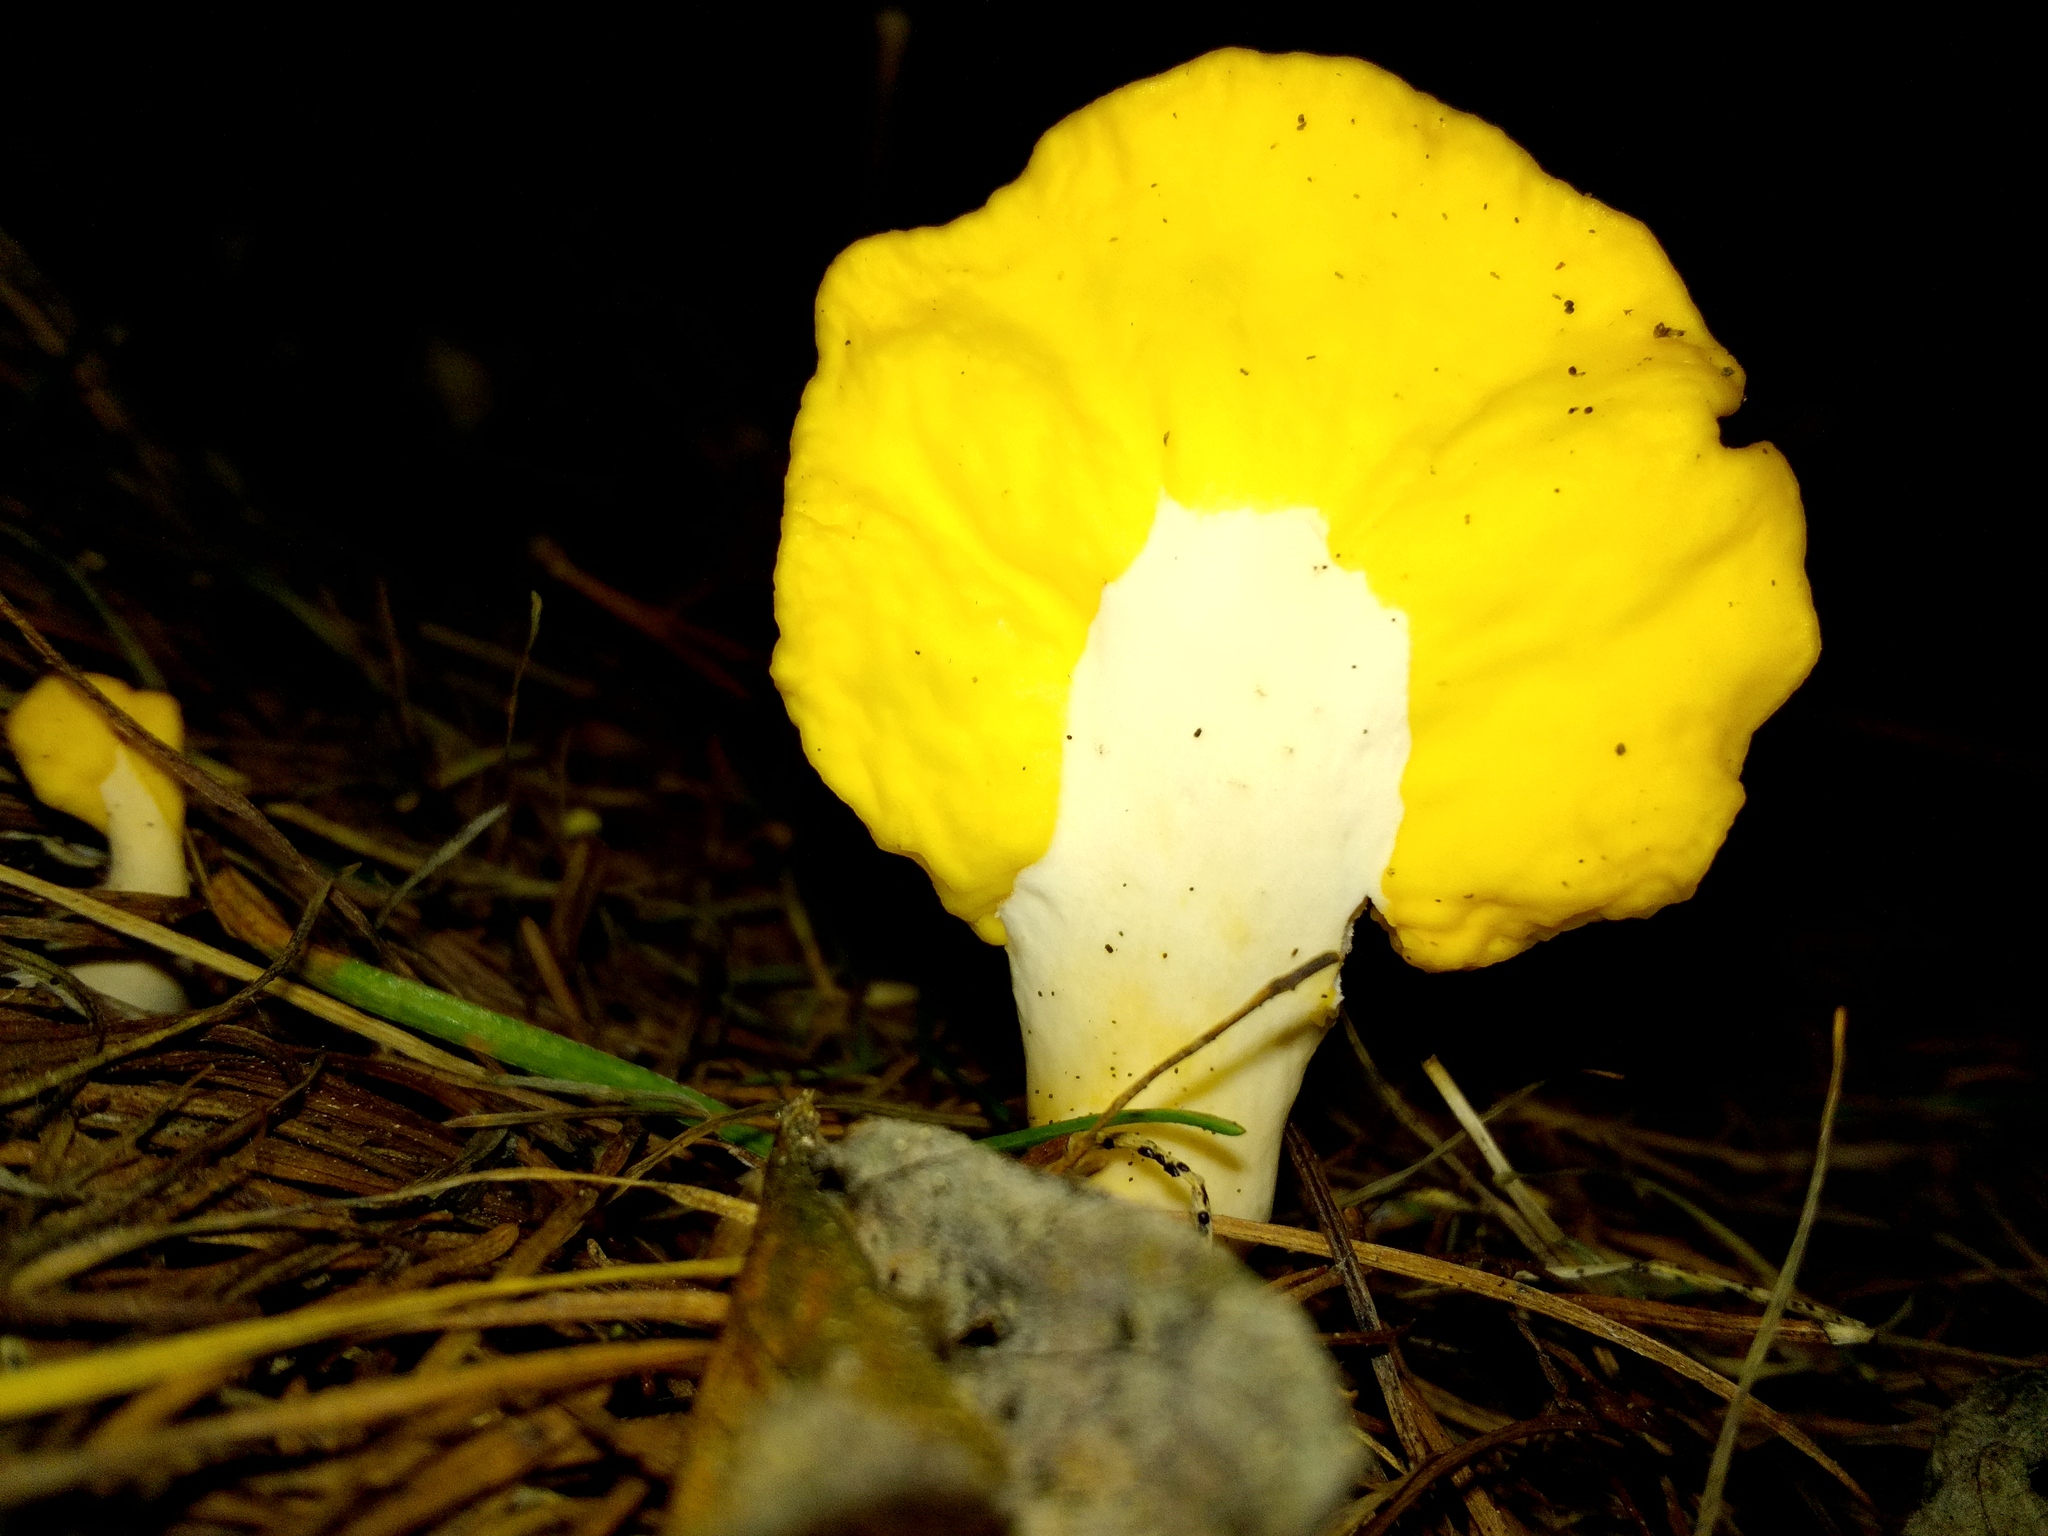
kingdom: Fungi
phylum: Ascomycota
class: Leotiomycetes
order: Rhytismatales
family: Cudoniaceae
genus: Spathularia
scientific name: Spathularia flavida
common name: Yellow fan
